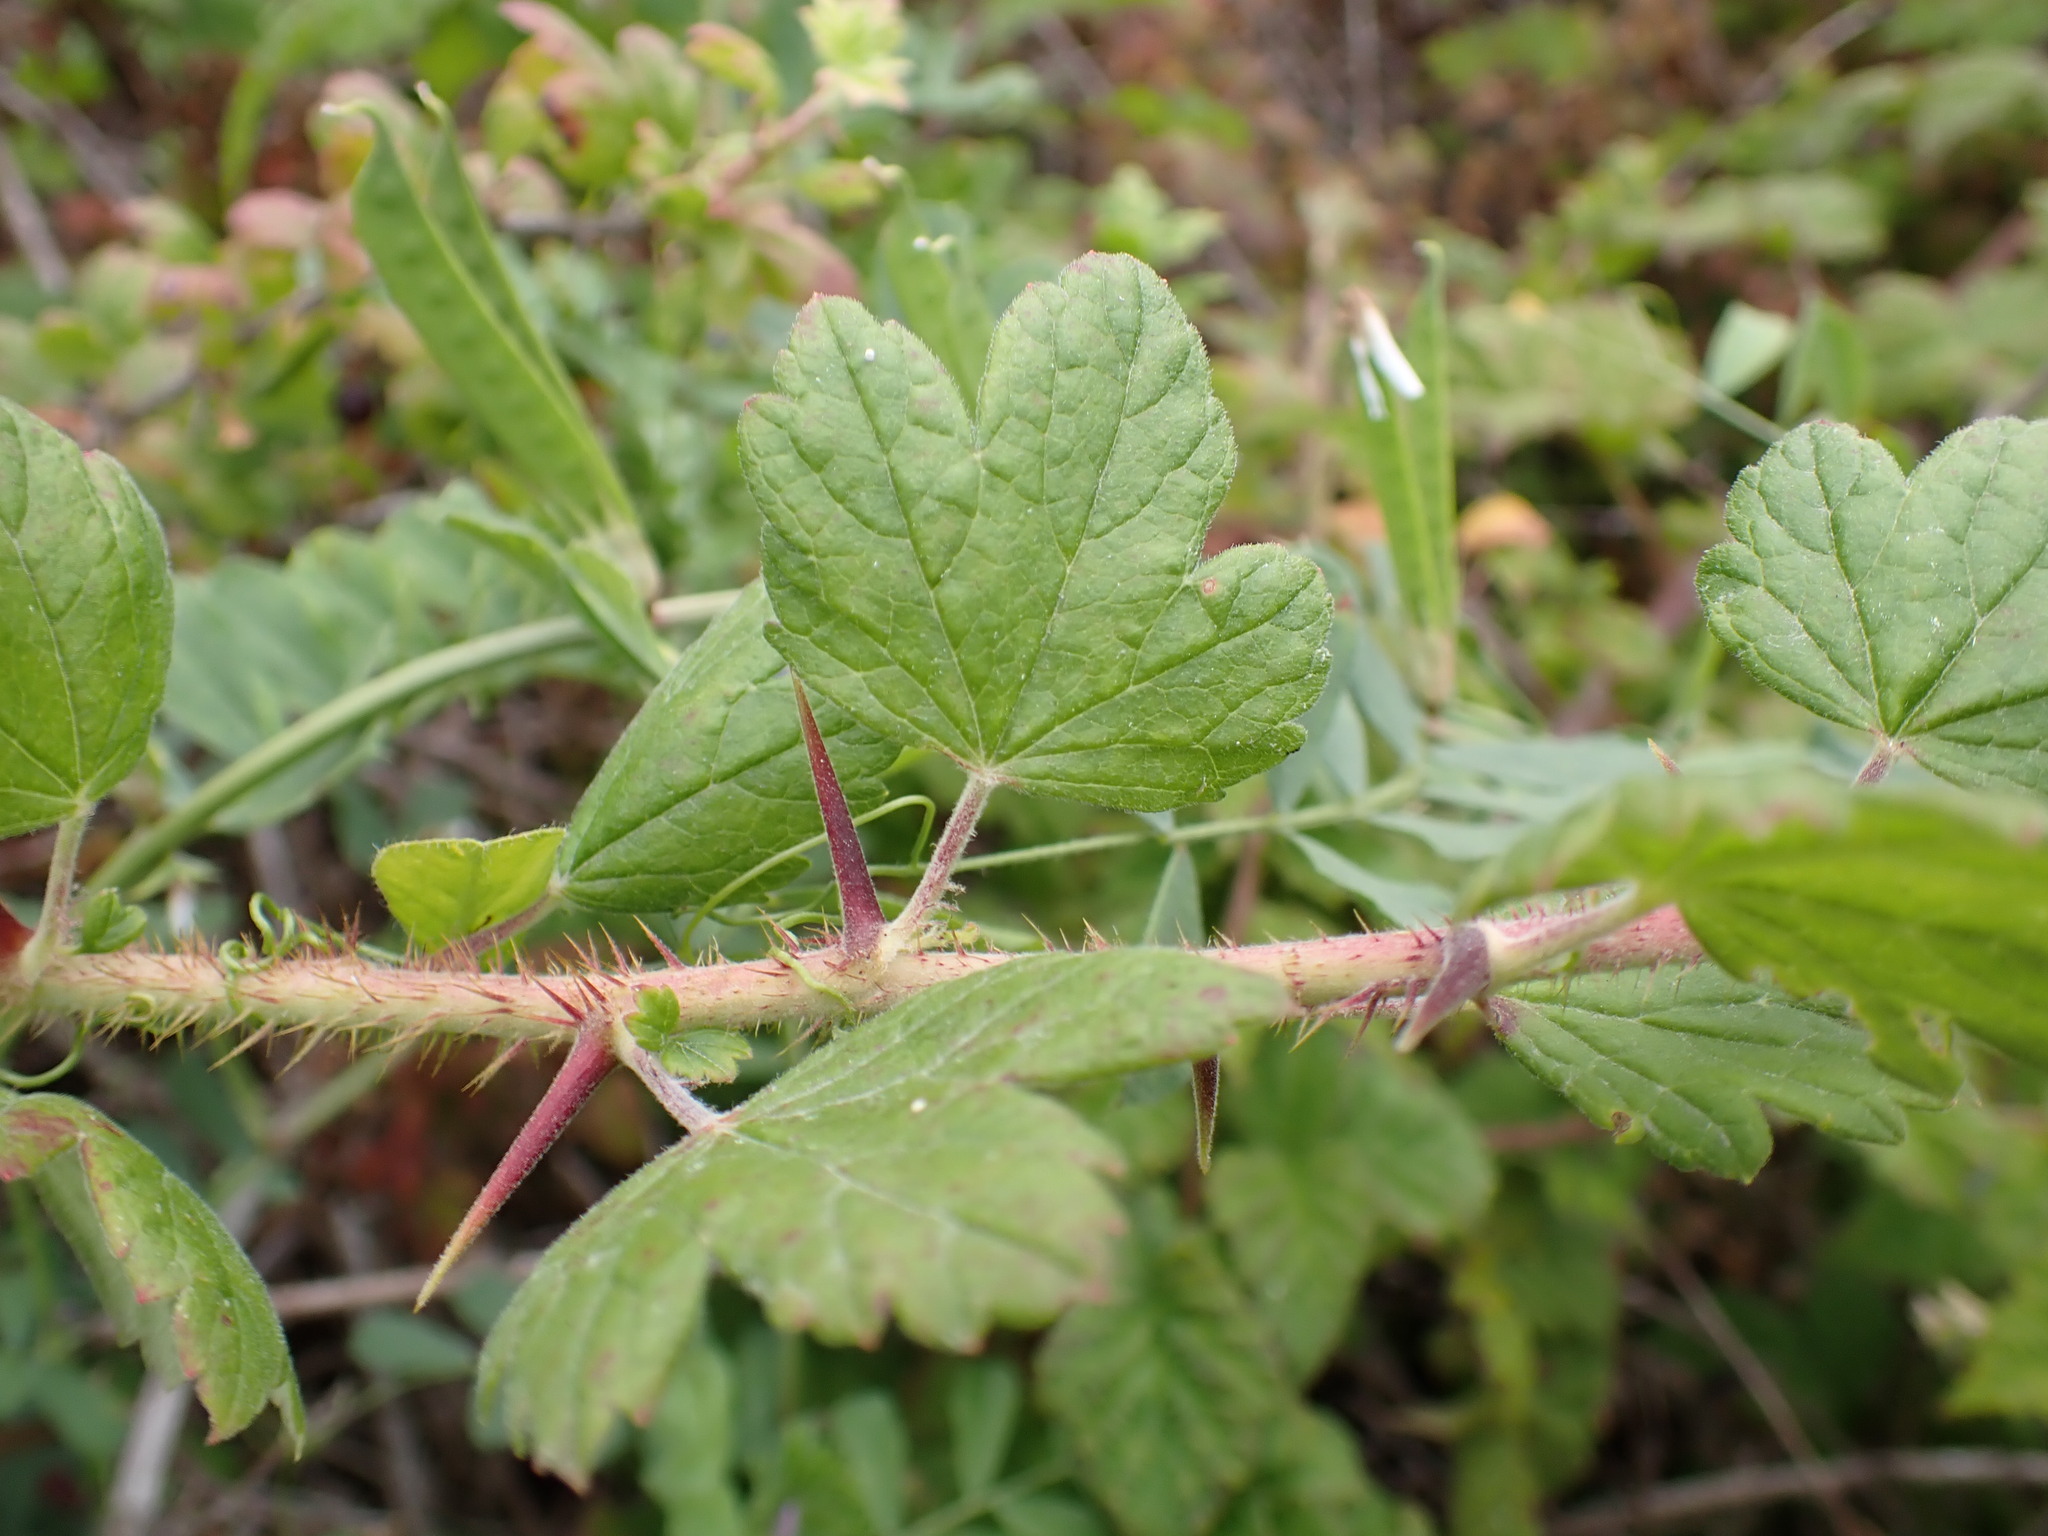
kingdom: Plantae
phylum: Tracheophyta
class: Magnoliopsida
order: Saxifragales
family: Grossulariaceae
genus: Ribes
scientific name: Ribes divaricatum
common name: Wild black gooseberry
